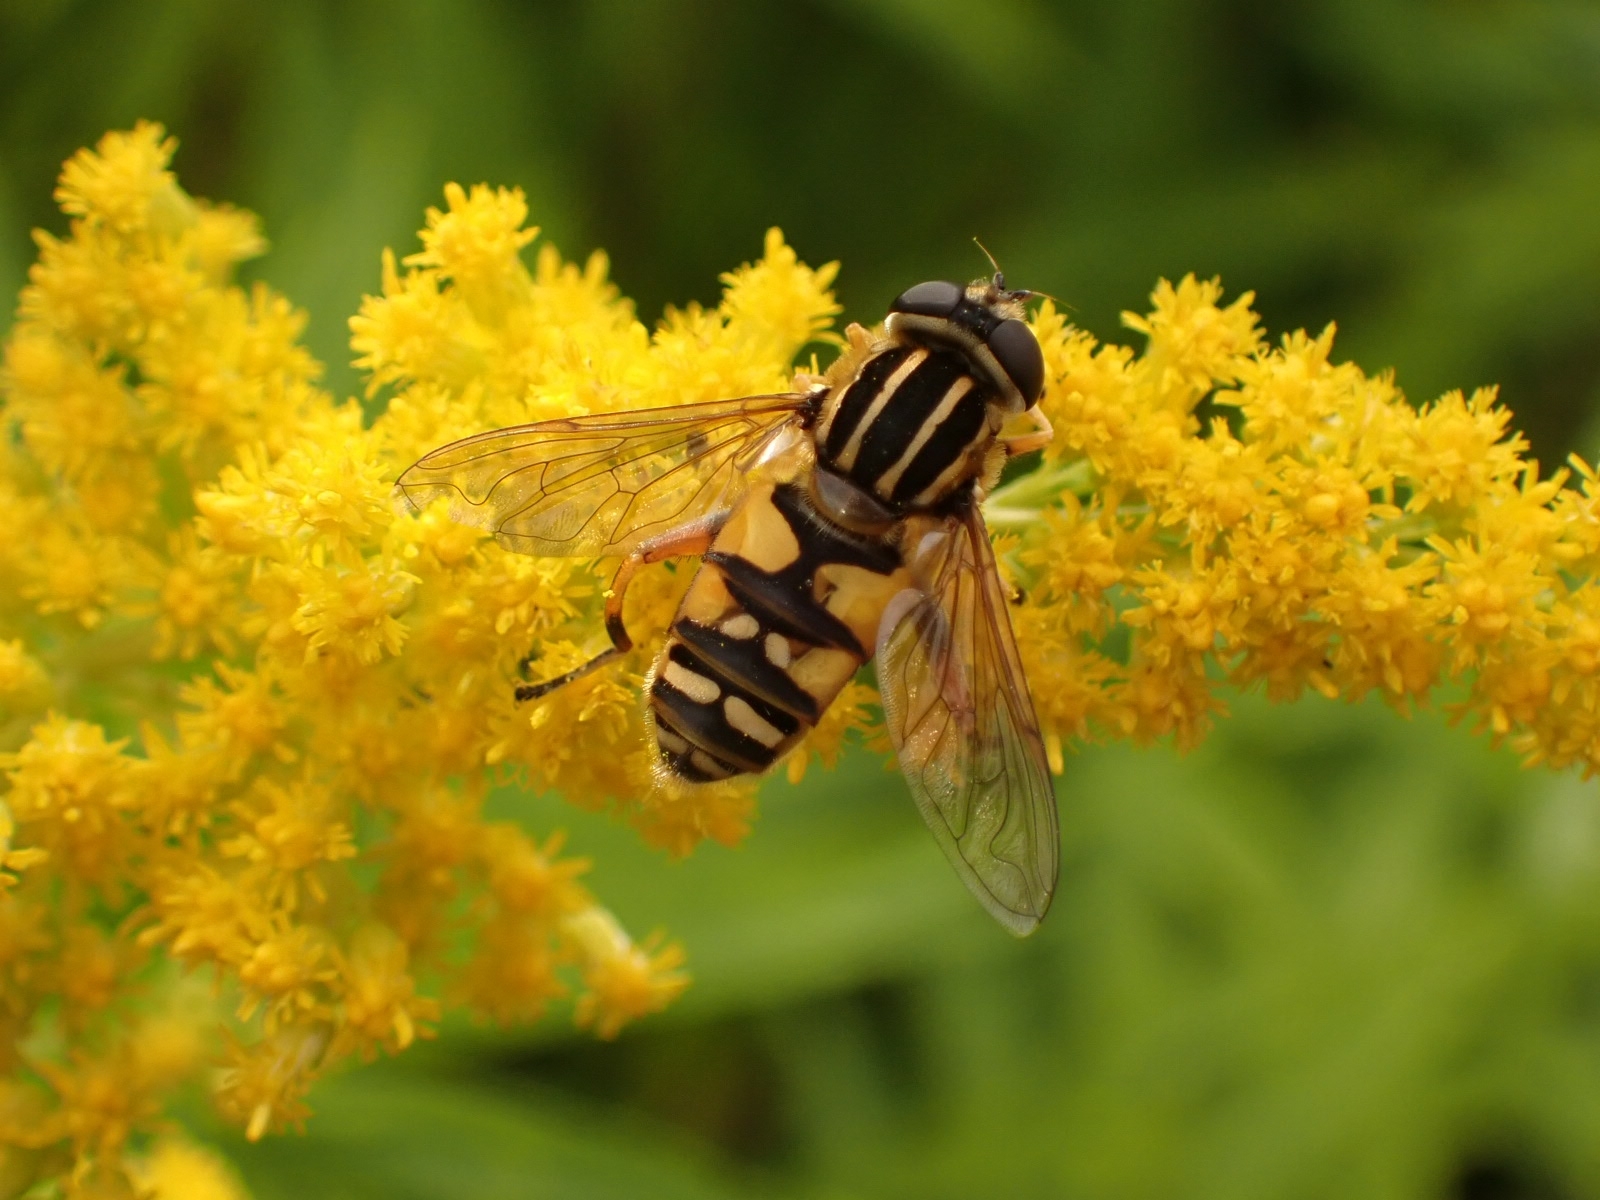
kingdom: Animalia
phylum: Arthropoda
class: Insecta
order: Diptera
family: Syrphidae
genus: Helophilus
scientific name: Helophilus pendulus
